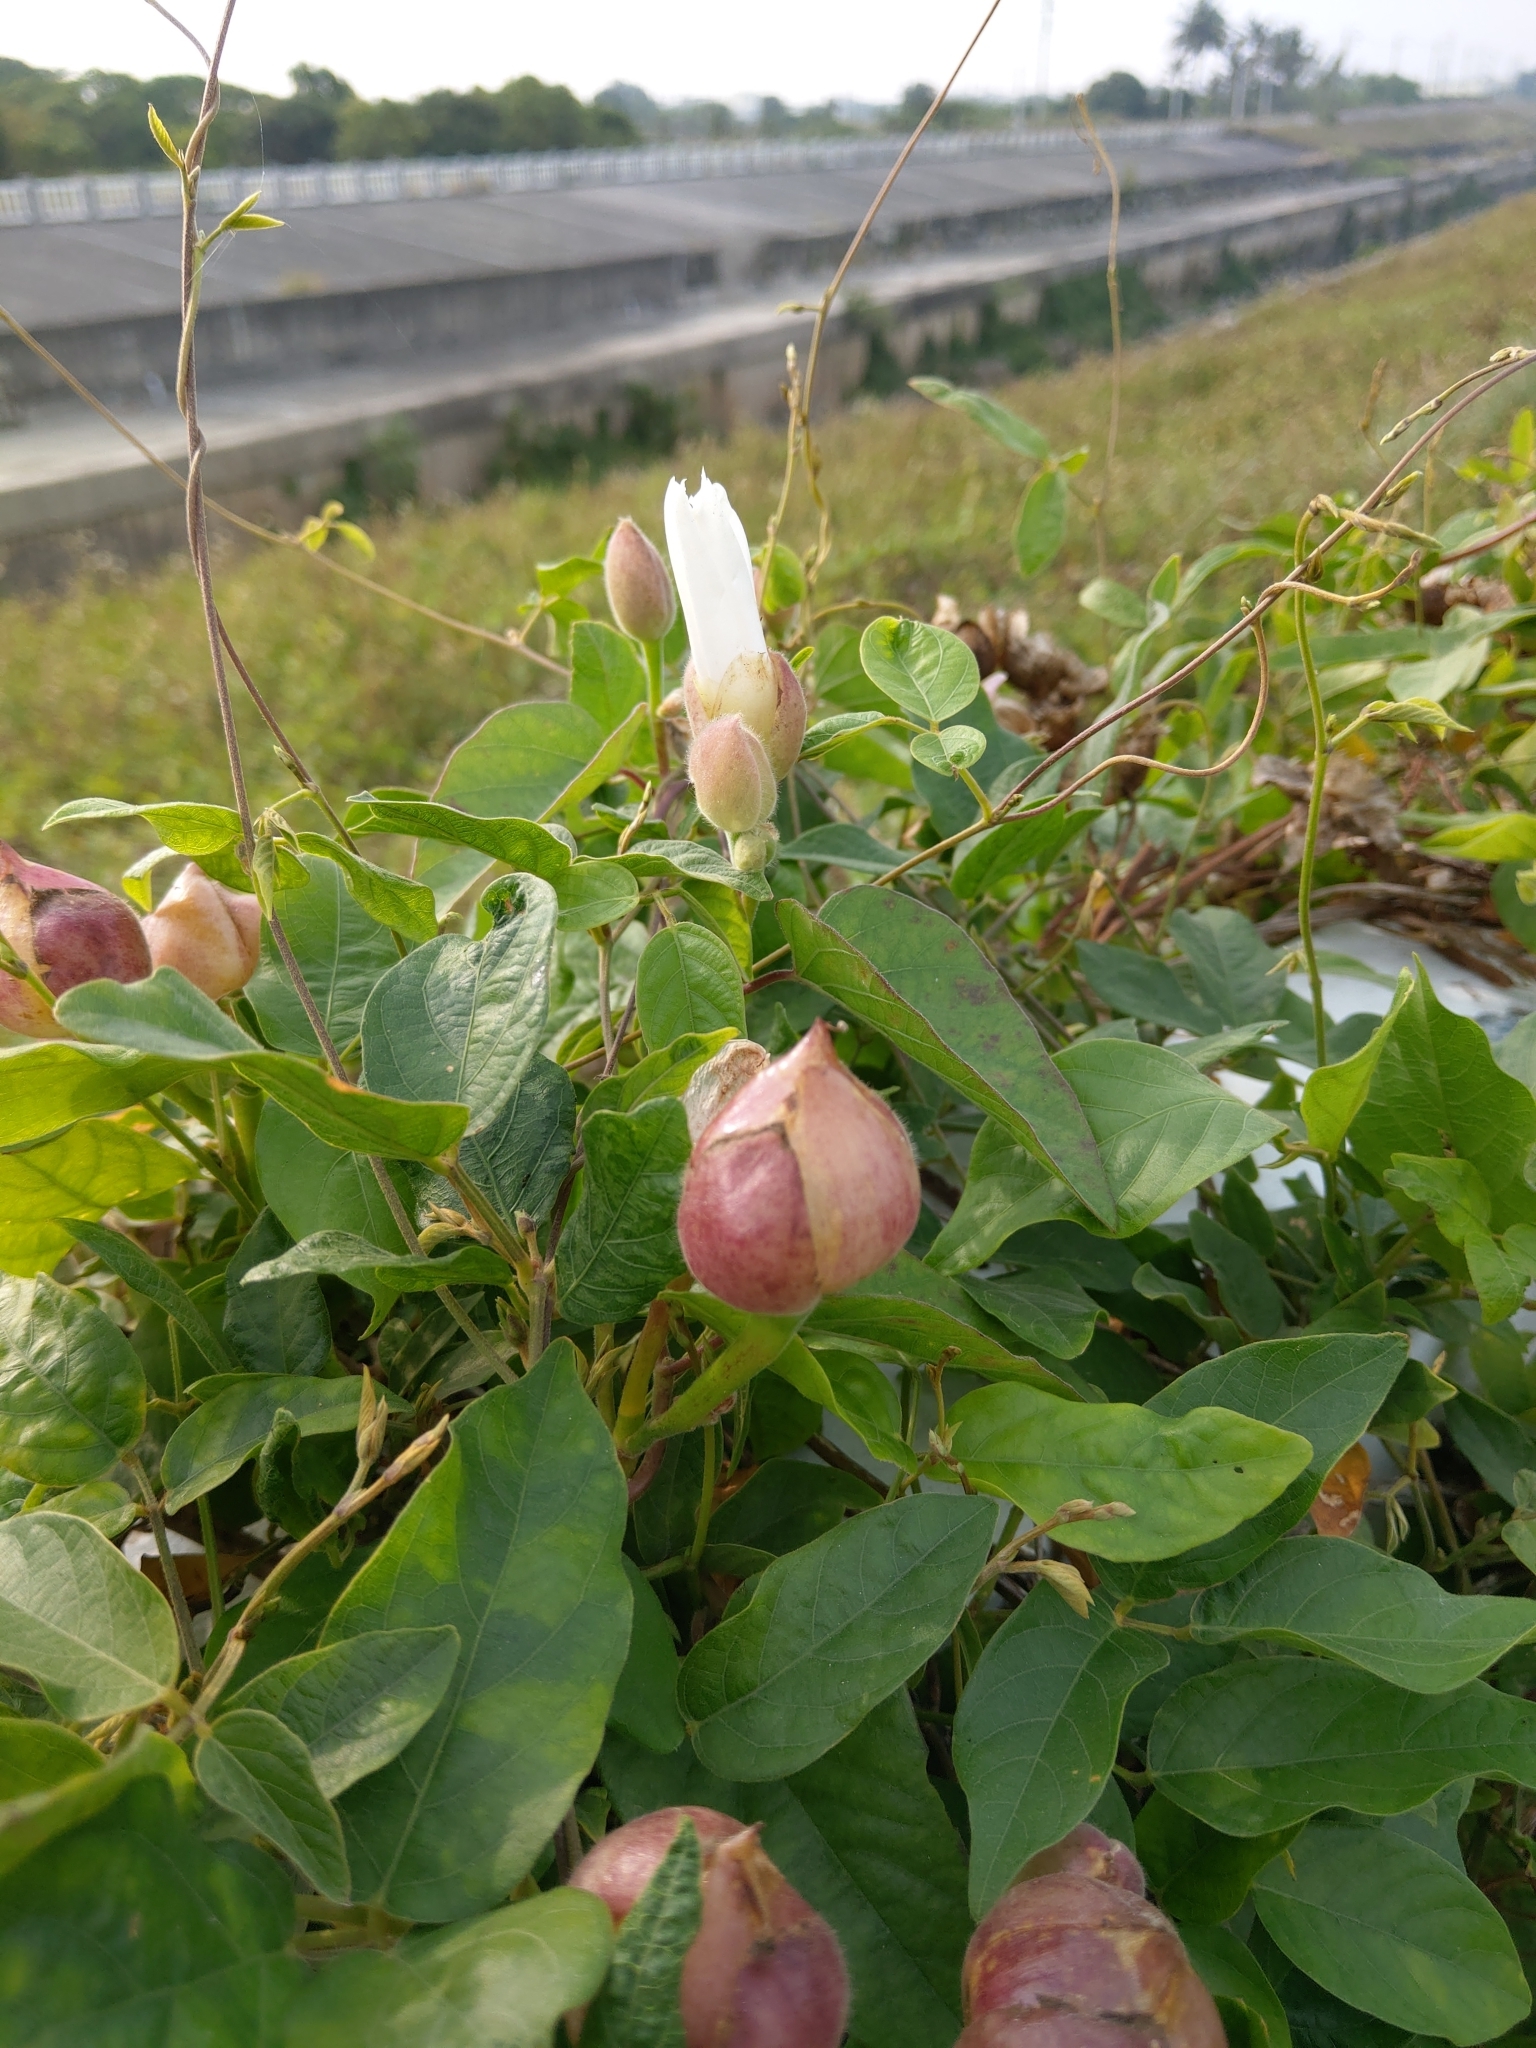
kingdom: Plantae
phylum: Tracheophyta
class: Magnoliopsida
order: Solanales
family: Convolvulaceae
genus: Operculina
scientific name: Operculina turpethum
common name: Transparent wood-rose
